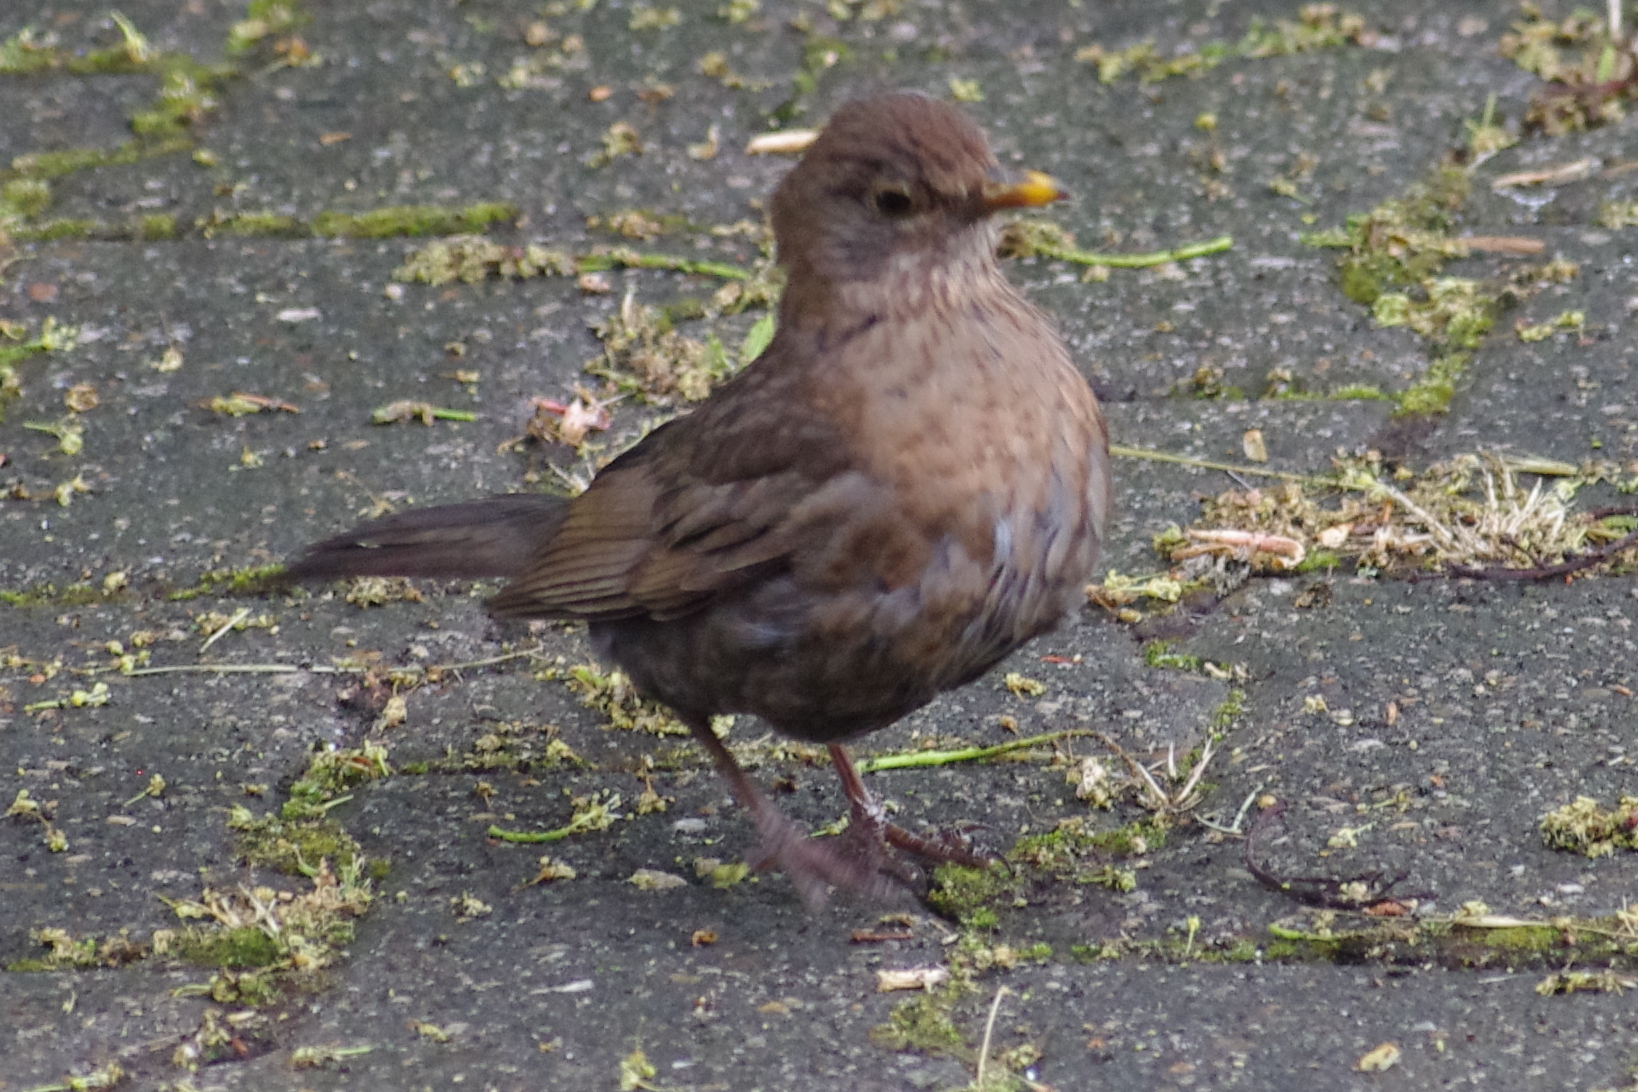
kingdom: Animalia
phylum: Chordata
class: Aves
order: Passeriformes
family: Turdidae
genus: Turdus
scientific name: Turdus merula
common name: Common blackbird
